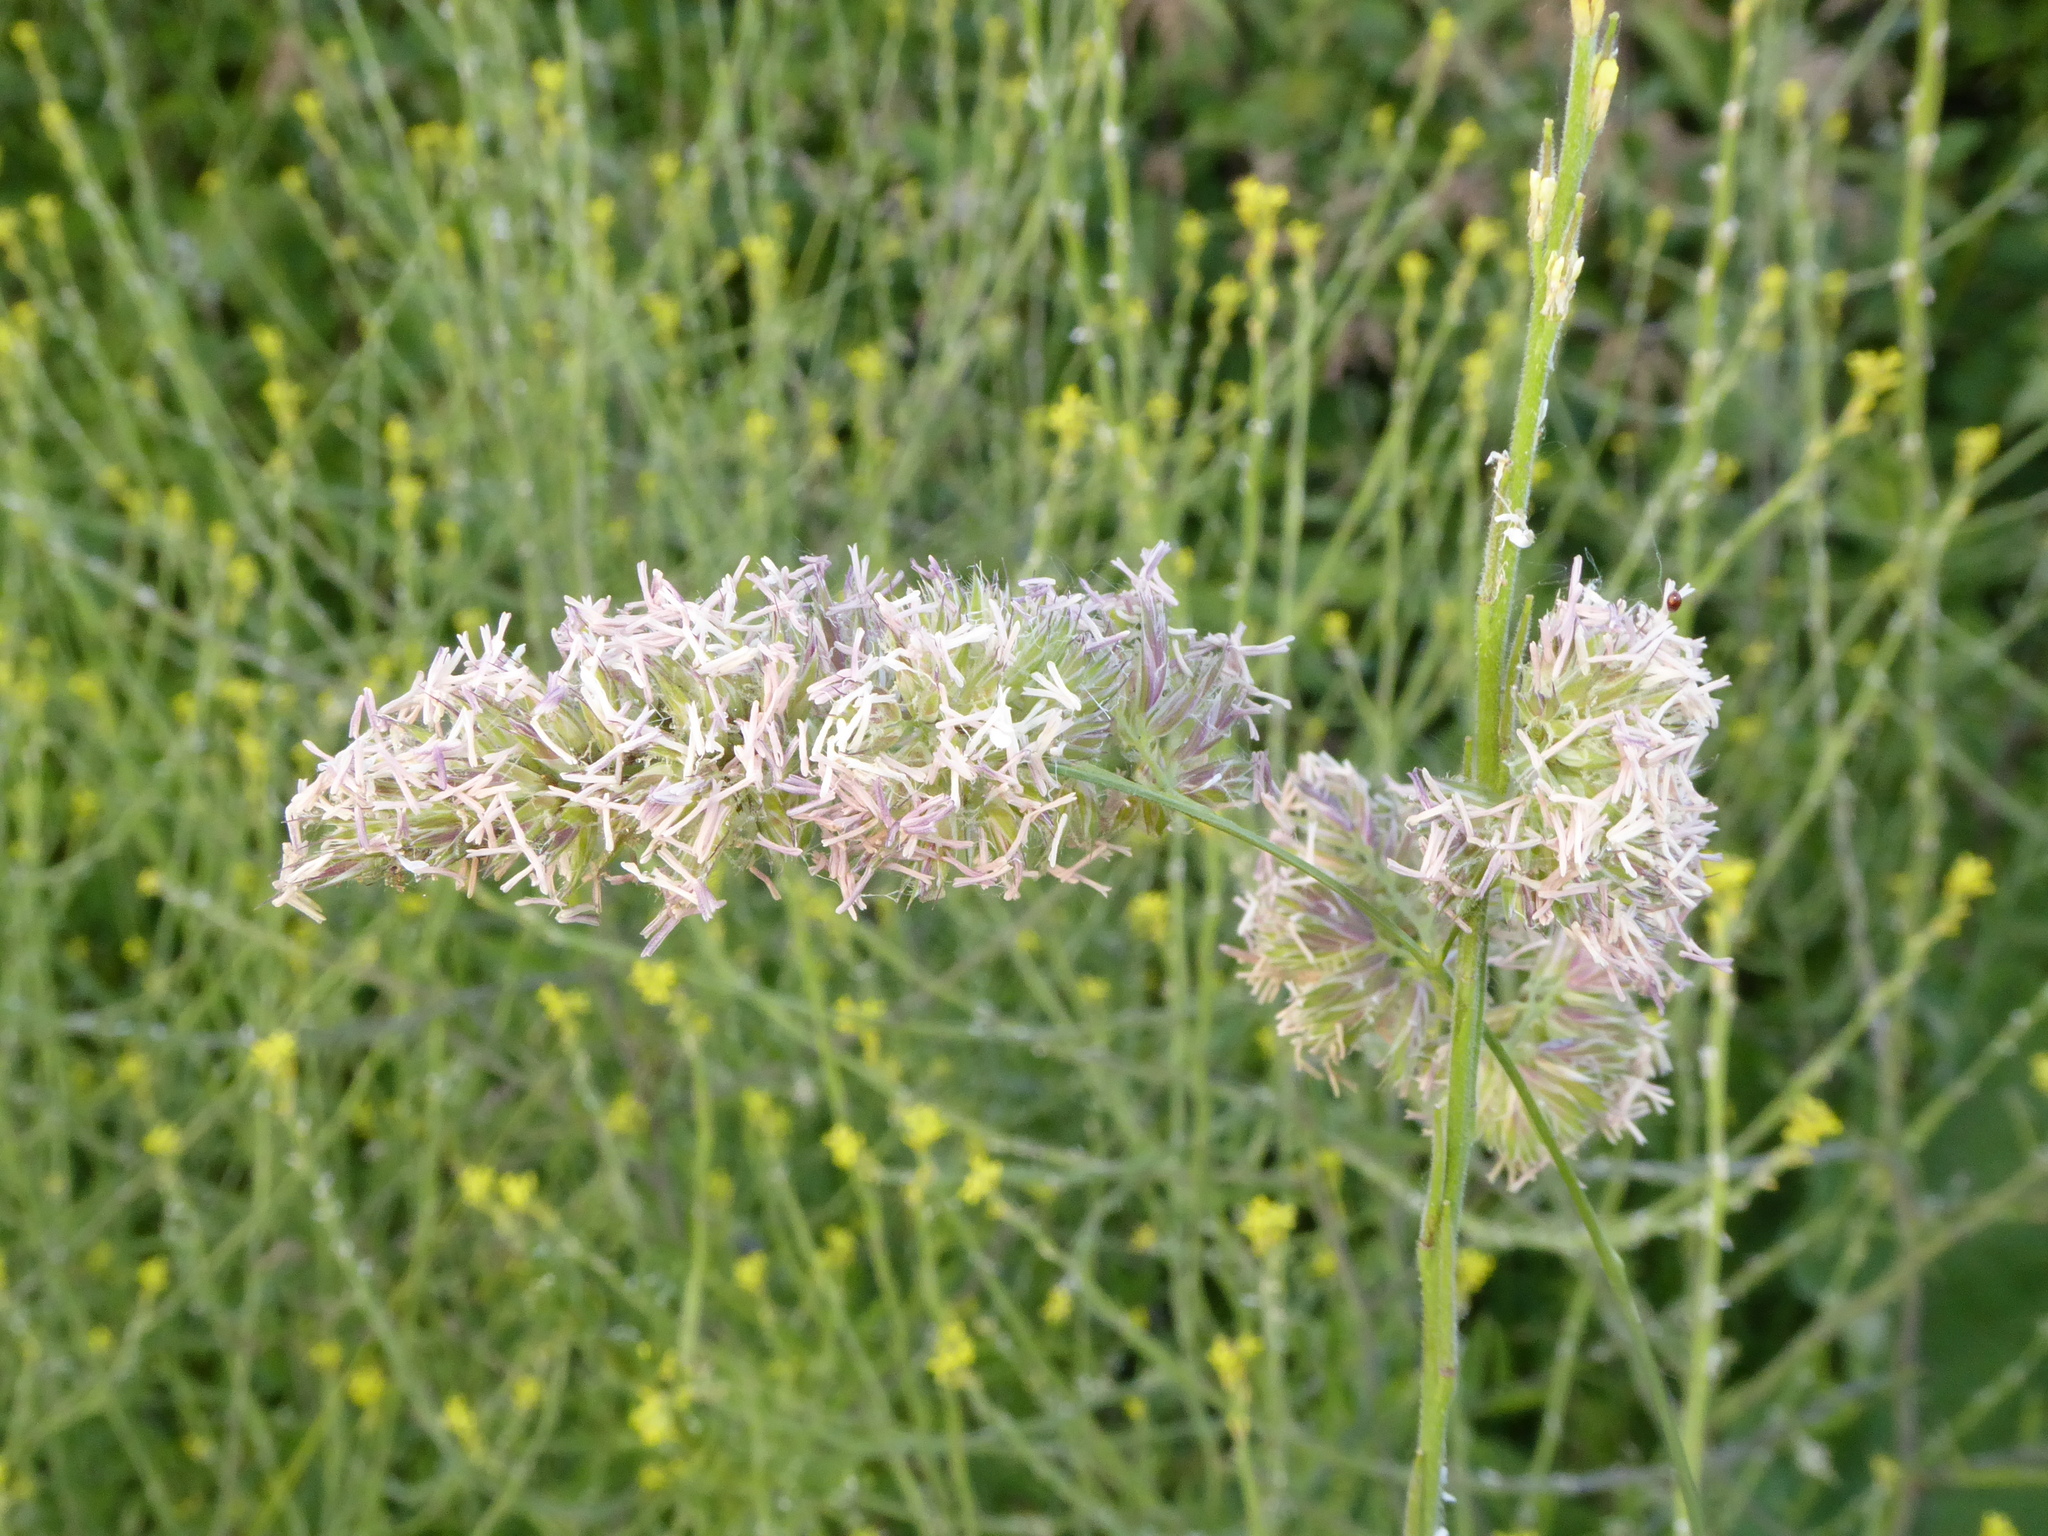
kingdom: Plantae
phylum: Tracheophyta
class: Liliopsida
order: Poales
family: Poaceae
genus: Dactylis
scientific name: Dactylis glomerata
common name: Orchardgrass
